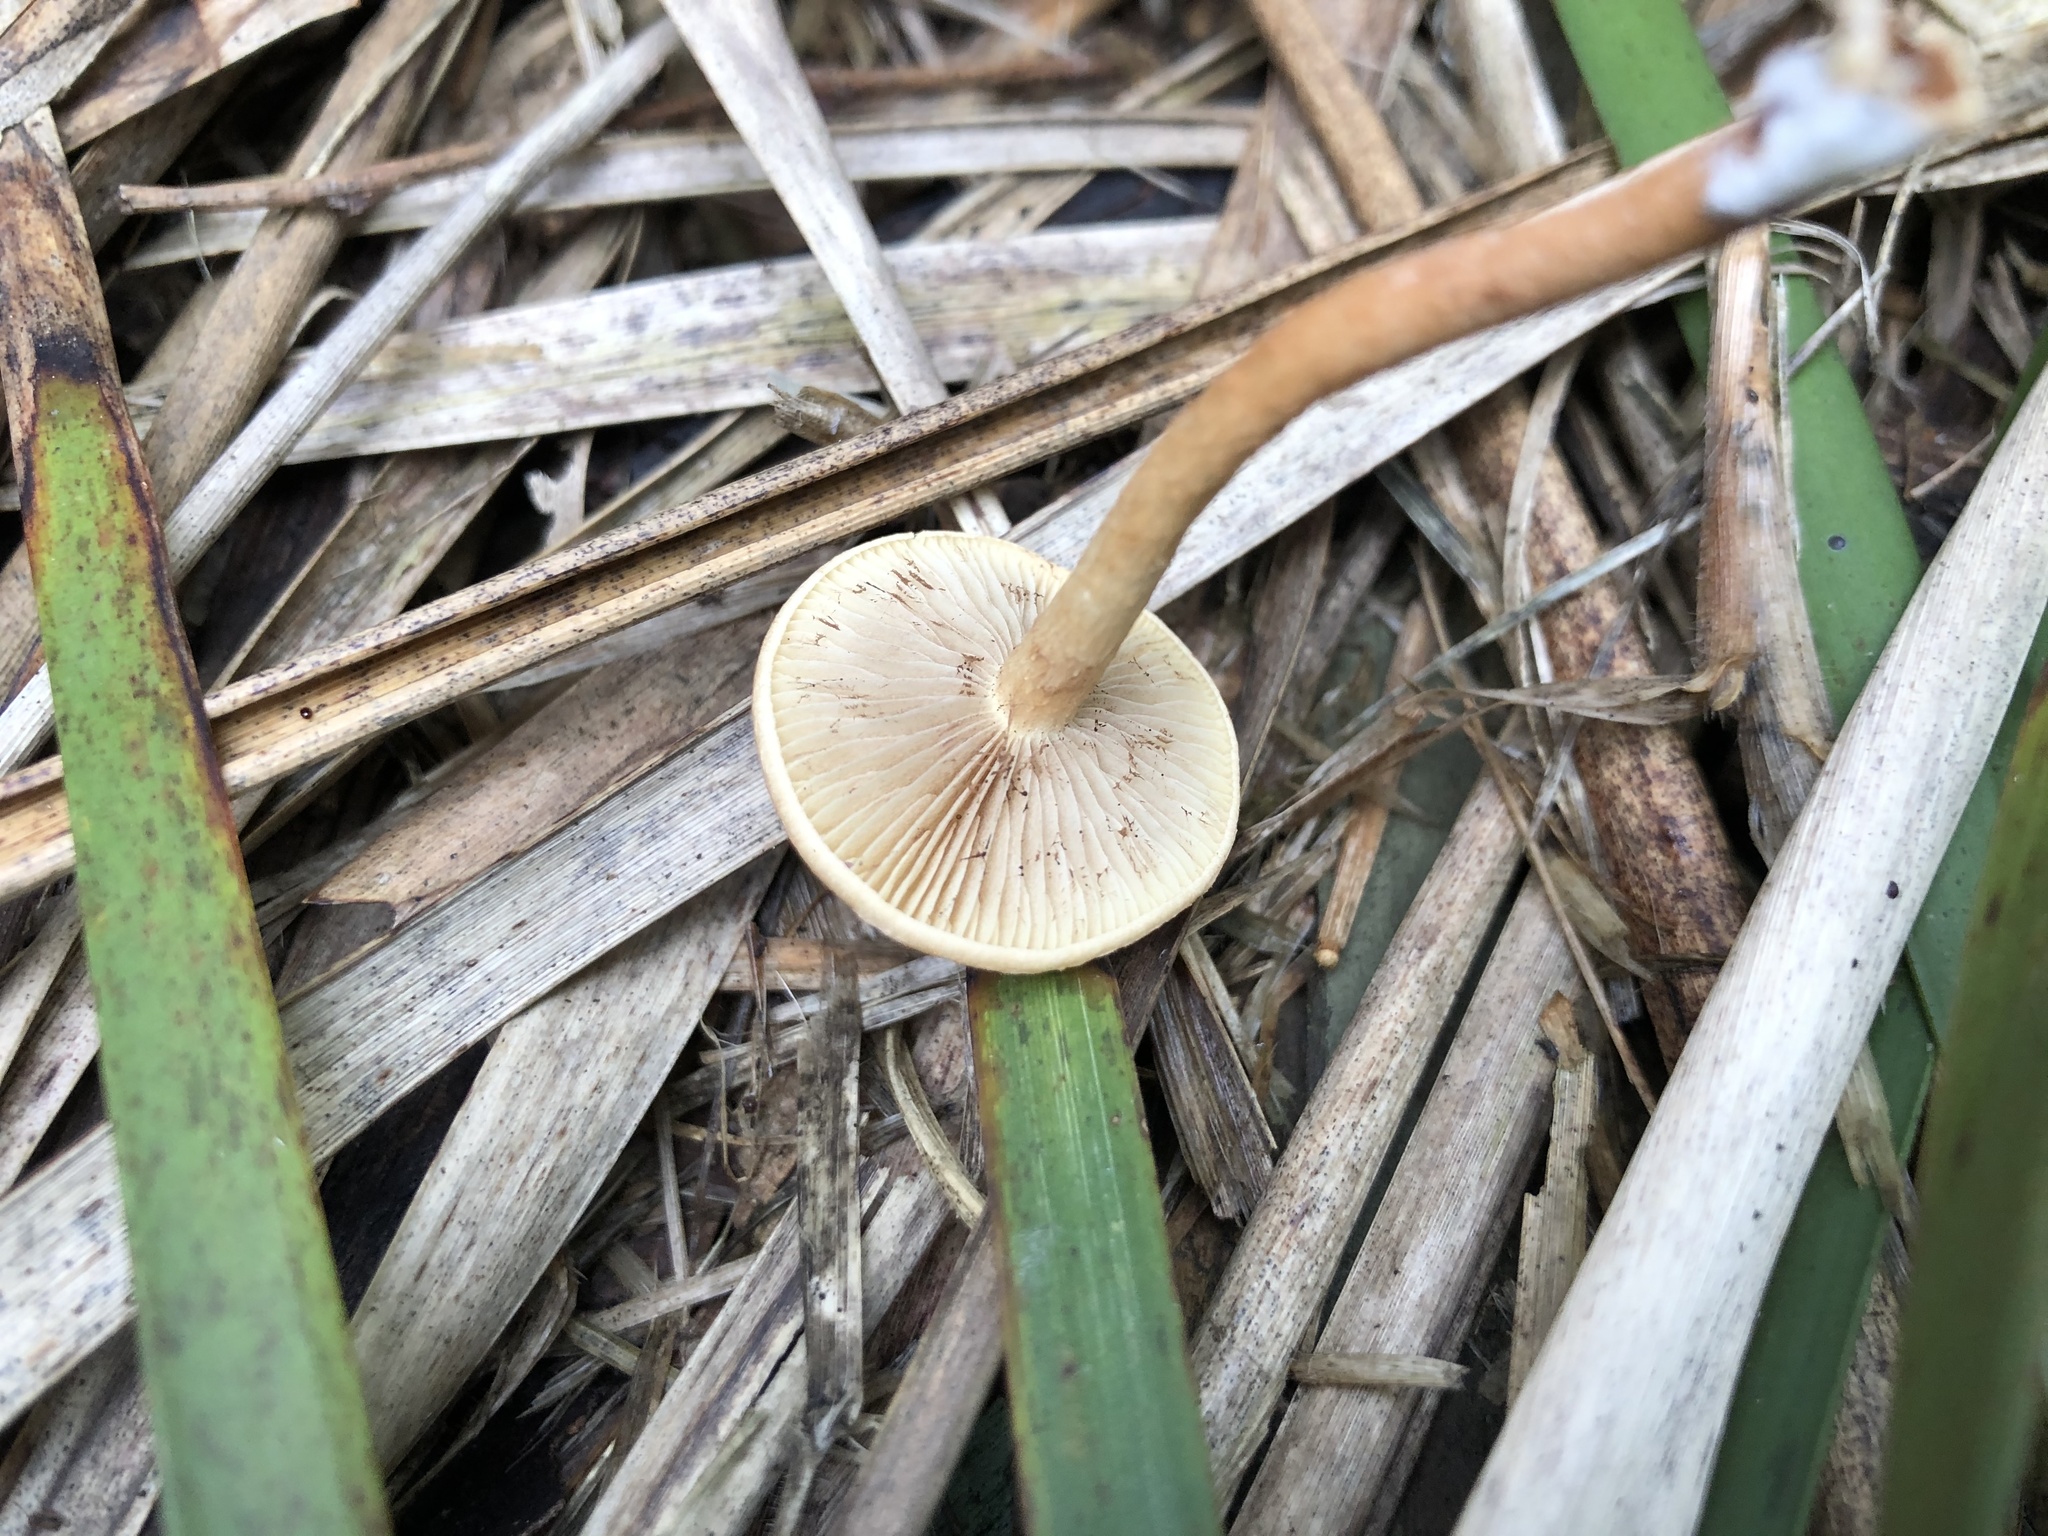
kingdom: Fungi
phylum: Basidiomycota
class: Agaricomycetes
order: Agaricales
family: Strophariaceae
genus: Pholiota
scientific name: Pholiota communis
